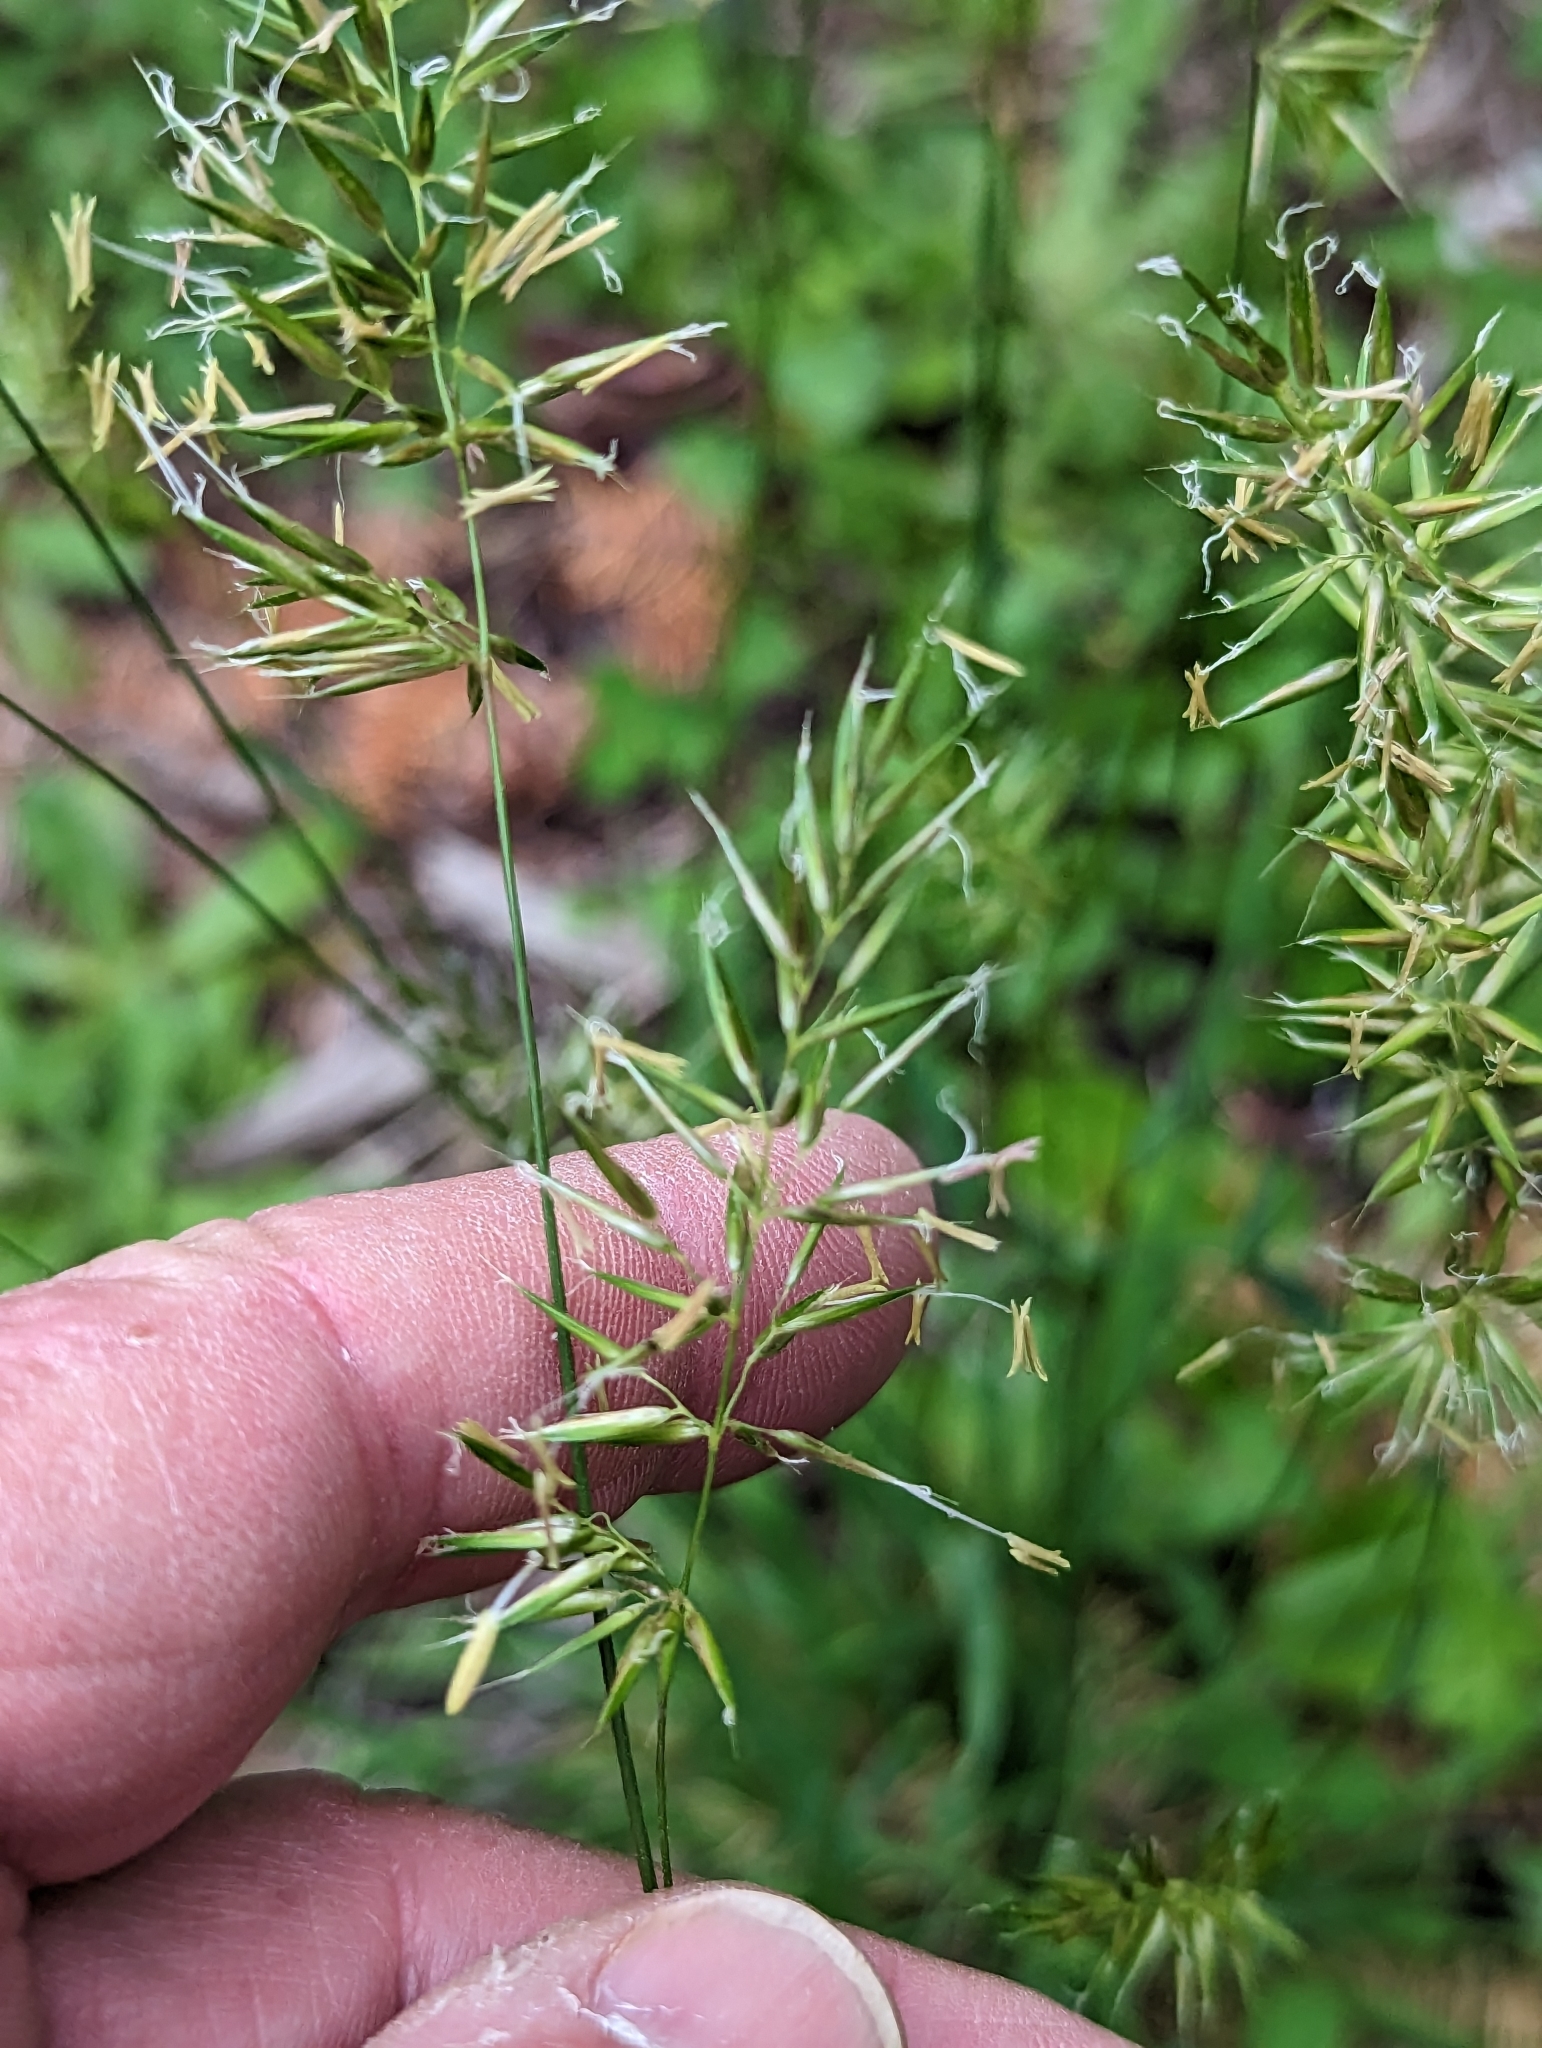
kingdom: Plantae
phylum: Tracheophyta
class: Liliopsida
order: Poales
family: Poaceae
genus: Anthoxanthum
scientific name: Anthoxanthum odoratum
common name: Sweet vernalgrass
